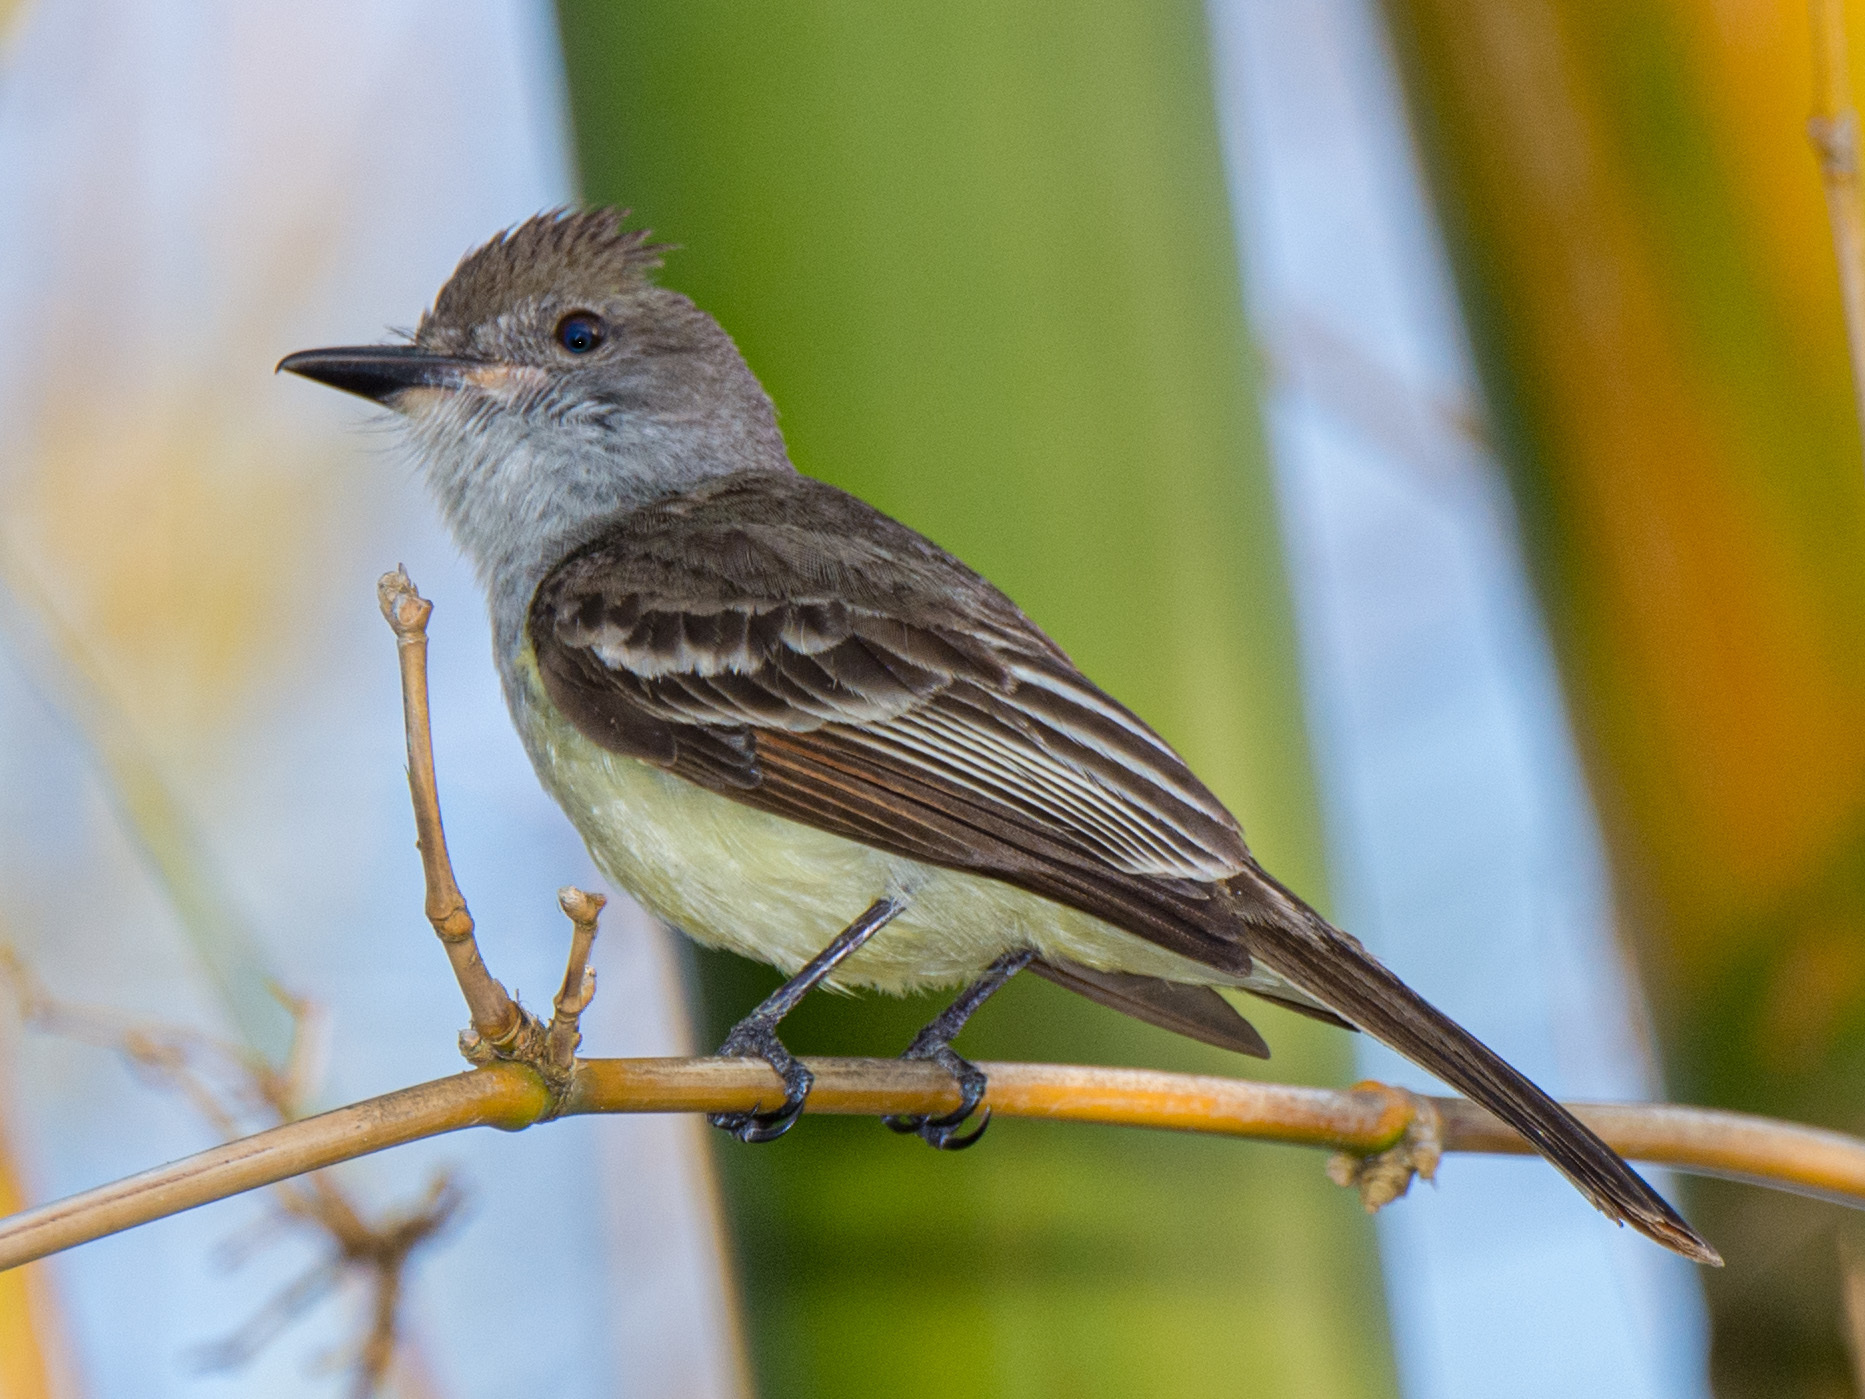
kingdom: Animalia
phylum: Chordata
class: Aves
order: Passeriformes
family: Tyrannidae
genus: Myiarchus
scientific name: Myiarchus tyrannulus
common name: Brown-crested flycatcher
